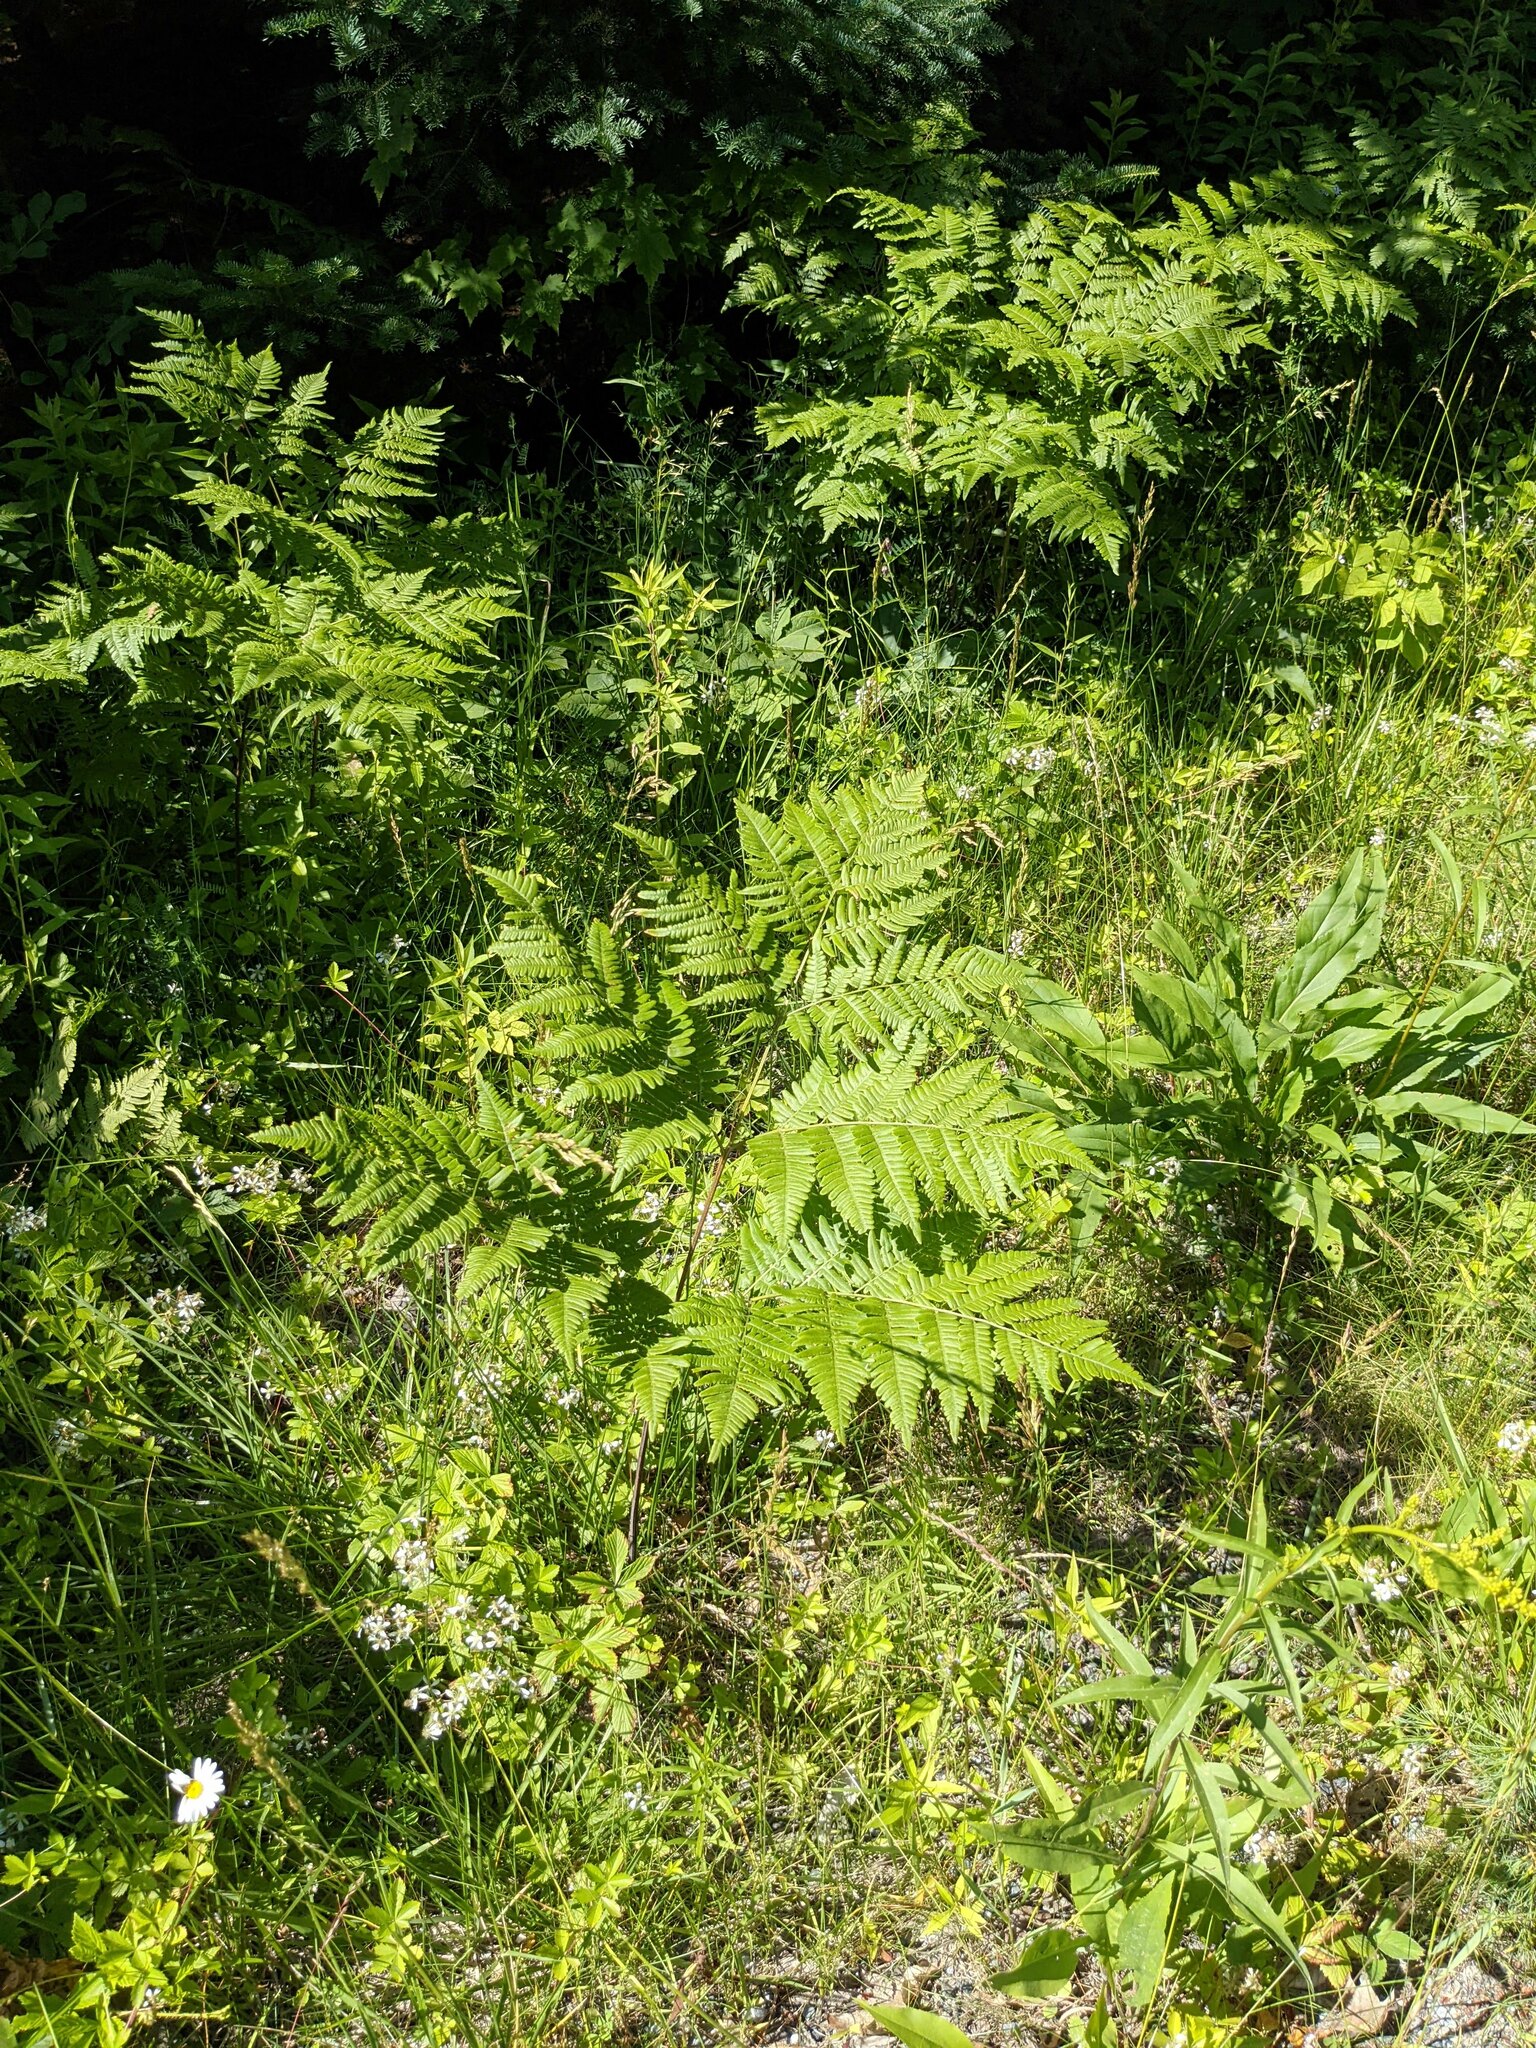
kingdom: Plantae
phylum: Tracheophyta
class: Polypodiopsida
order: Polypodiales
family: Dennstaedtiaceae
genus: Pteridium
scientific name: Pteridium aquilinum
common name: Bracken
